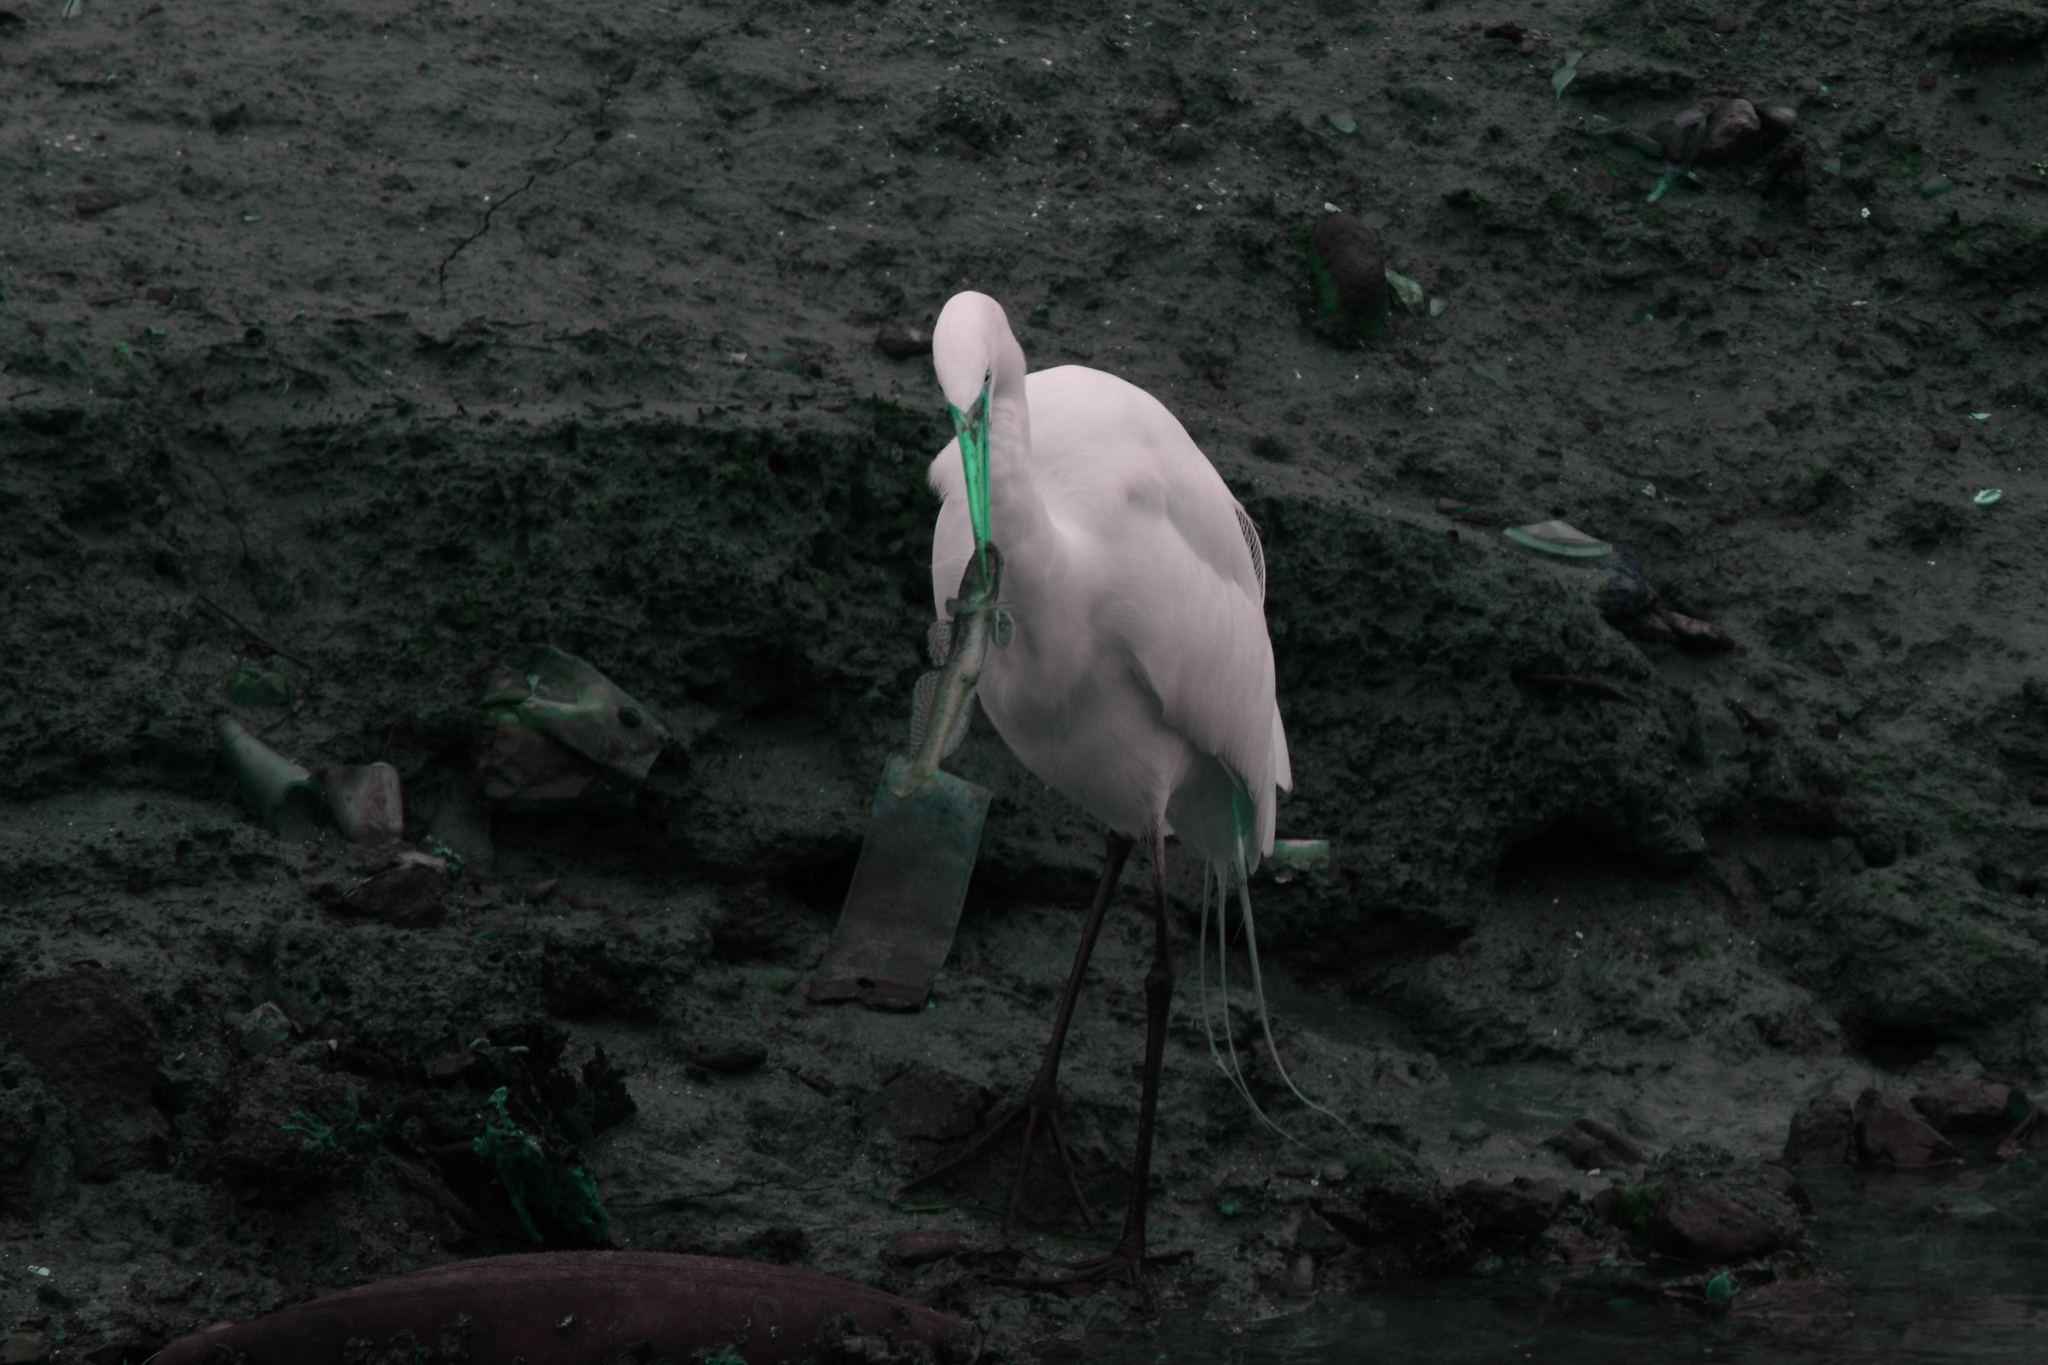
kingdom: Animalia
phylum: Chordata
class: Aves
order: Pelecaniformes
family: Ardeidae
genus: Ardea
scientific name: Ardea alba
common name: Great egret
